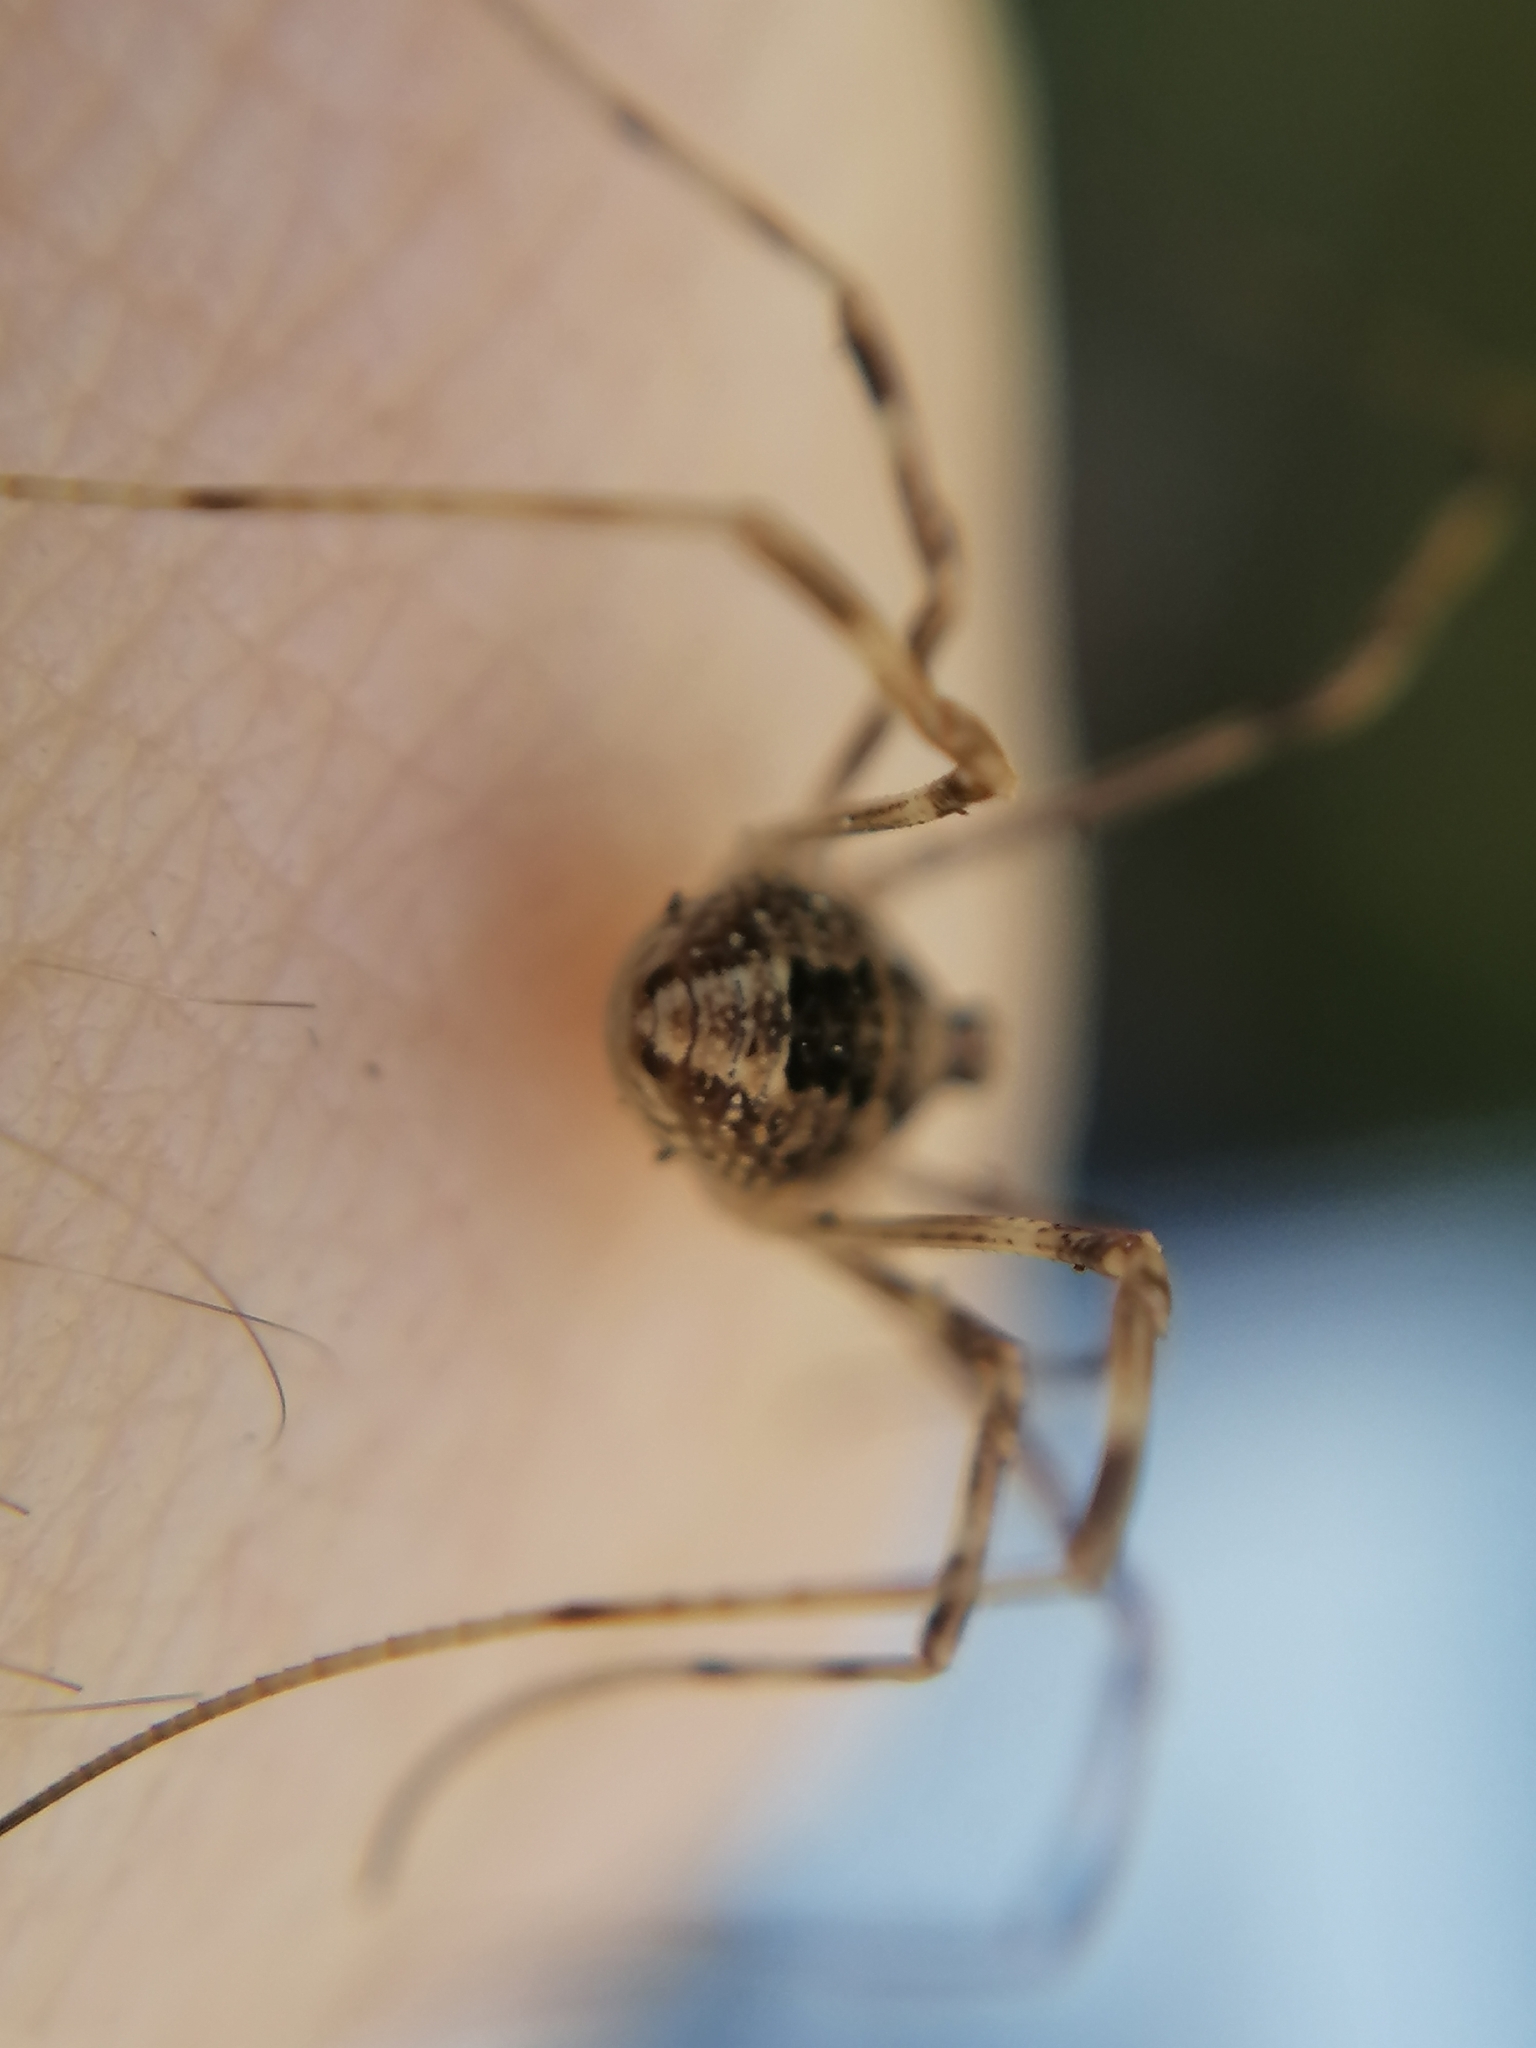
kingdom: Animalia
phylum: Arthropoda
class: Arachnida
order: Opiliones
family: Phalangiidae
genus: Rilaena
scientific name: Rilaena triangularis
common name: Spring harvestman
